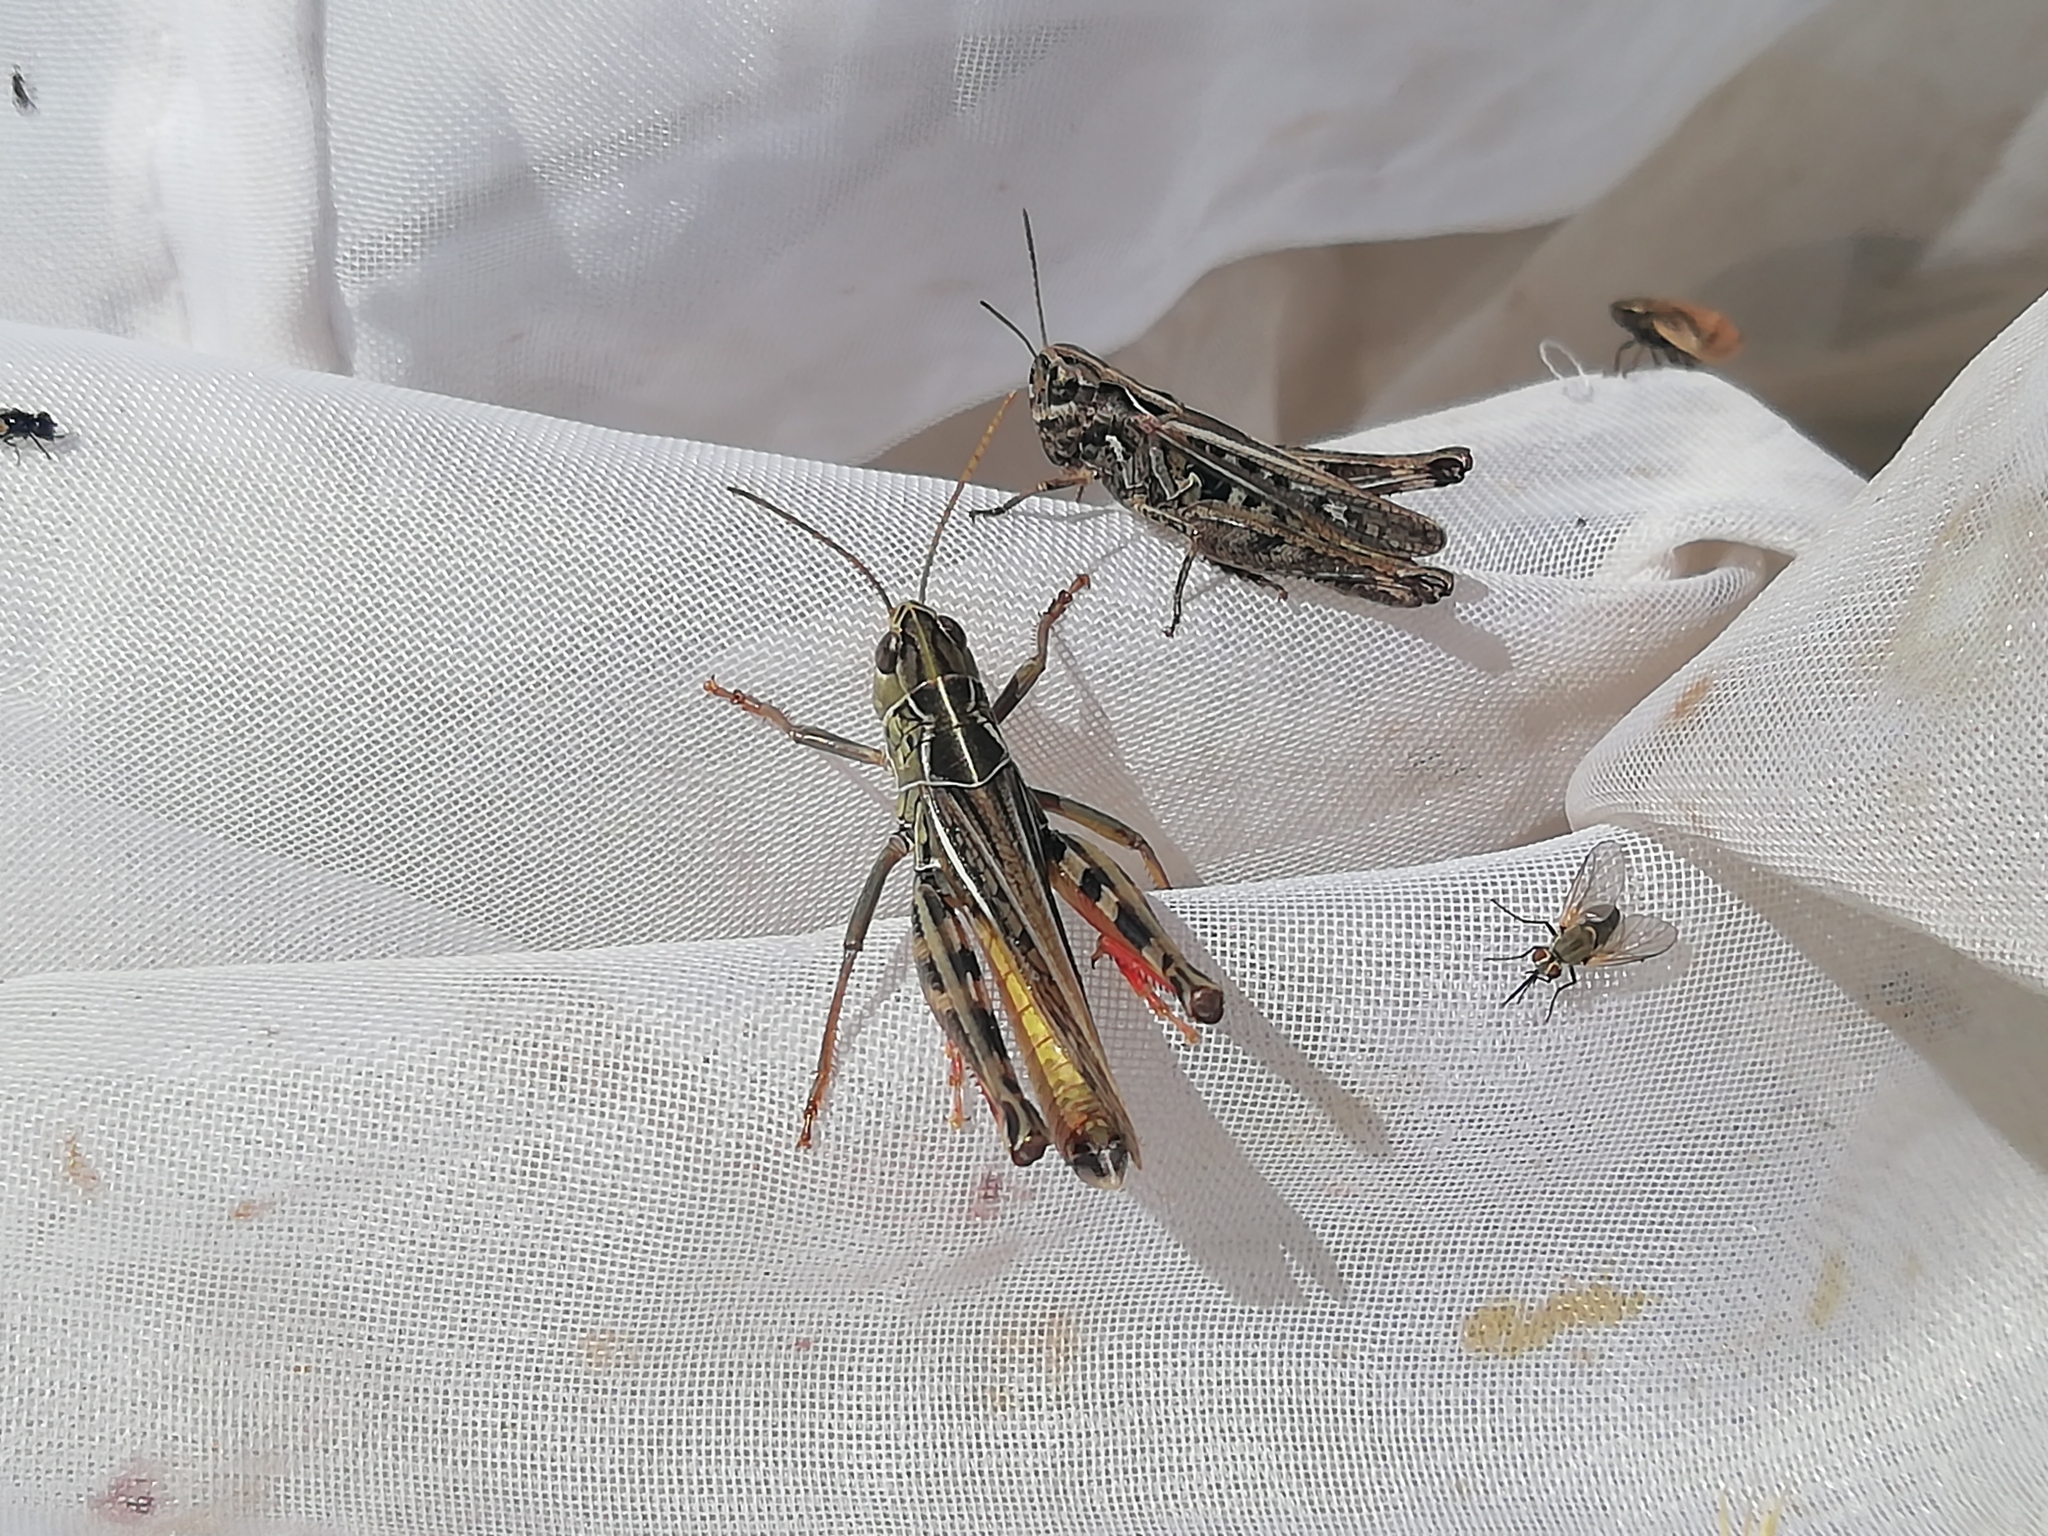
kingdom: Animalia
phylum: Arthropoda
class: Insecta
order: Orthoptera
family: Acrididae
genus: Arcyptera
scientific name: Arcyptera microptera
